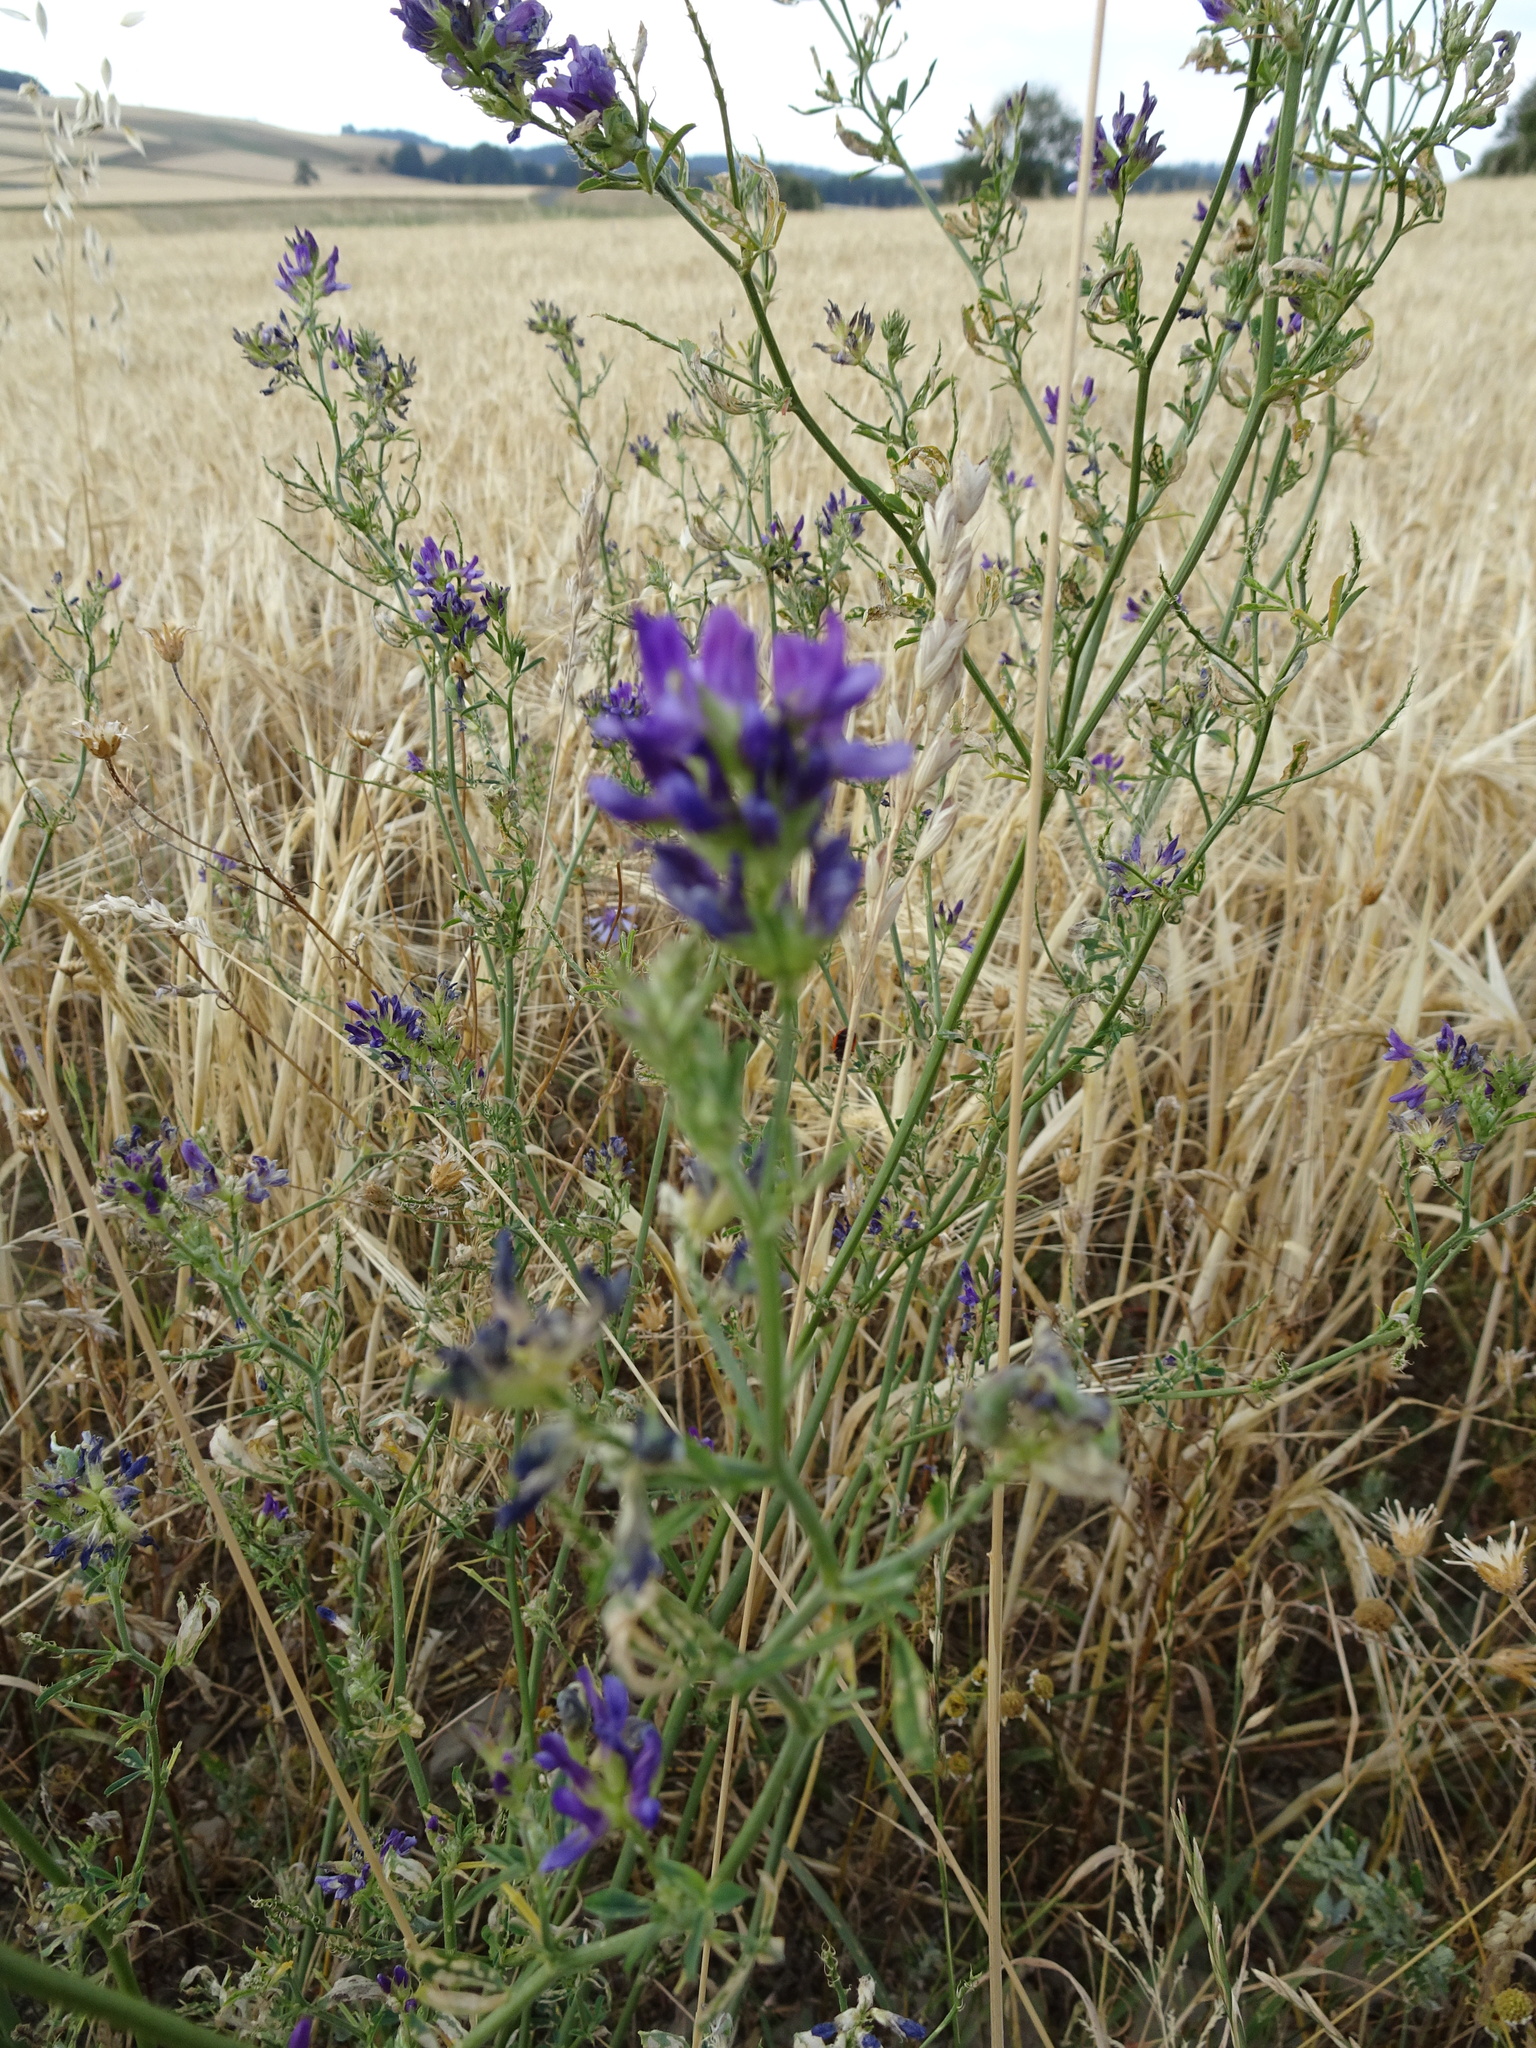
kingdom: Plantae
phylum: Tracheophyta
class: Magnoliopsida
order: Fabales
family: Fabaceae
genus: Medicago
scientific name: Medicago sativa
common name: Alfalfa
